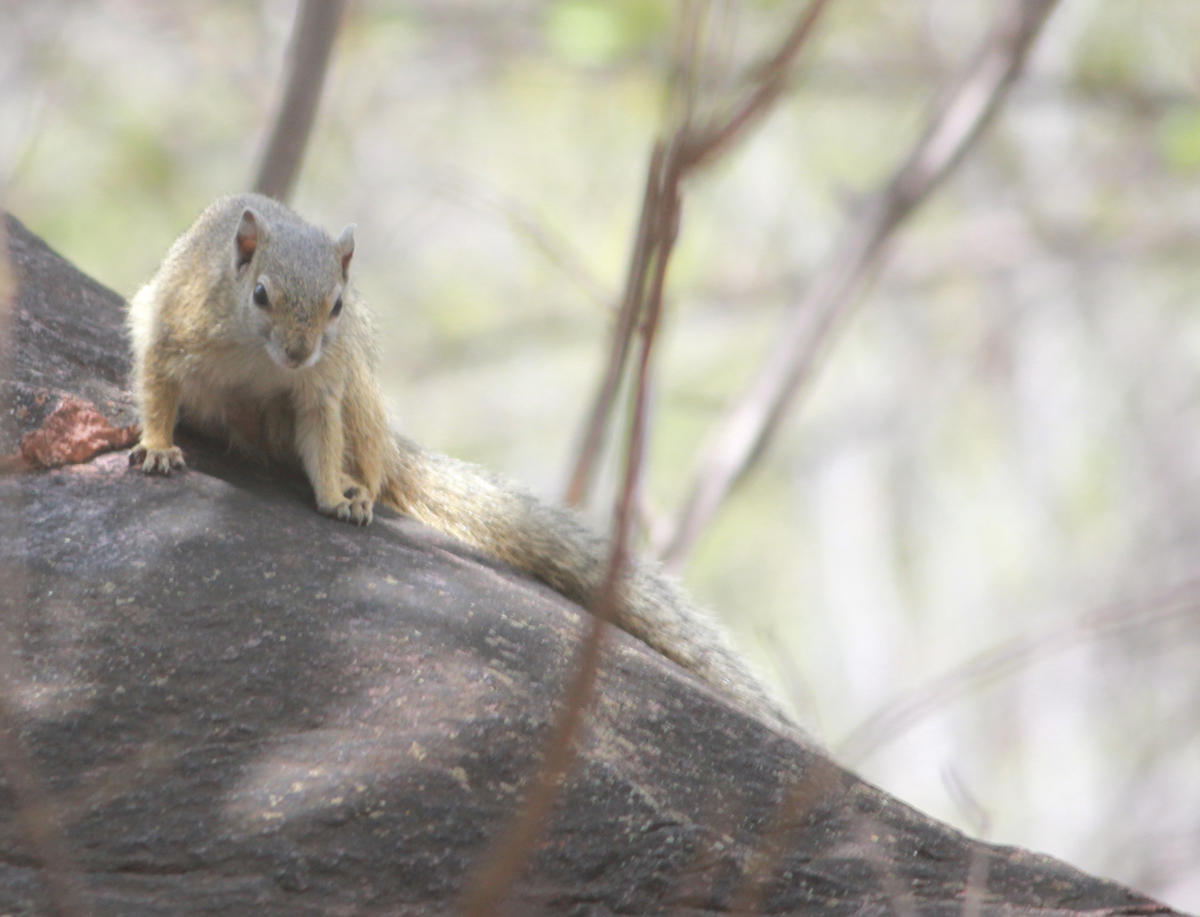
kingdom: Animalia
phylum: Chordata
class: Mammalia
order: Rodentia
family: Sciuridae
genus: Paraxerus
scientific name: Paraxerus cepapi
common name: Smith's bush squirrel
